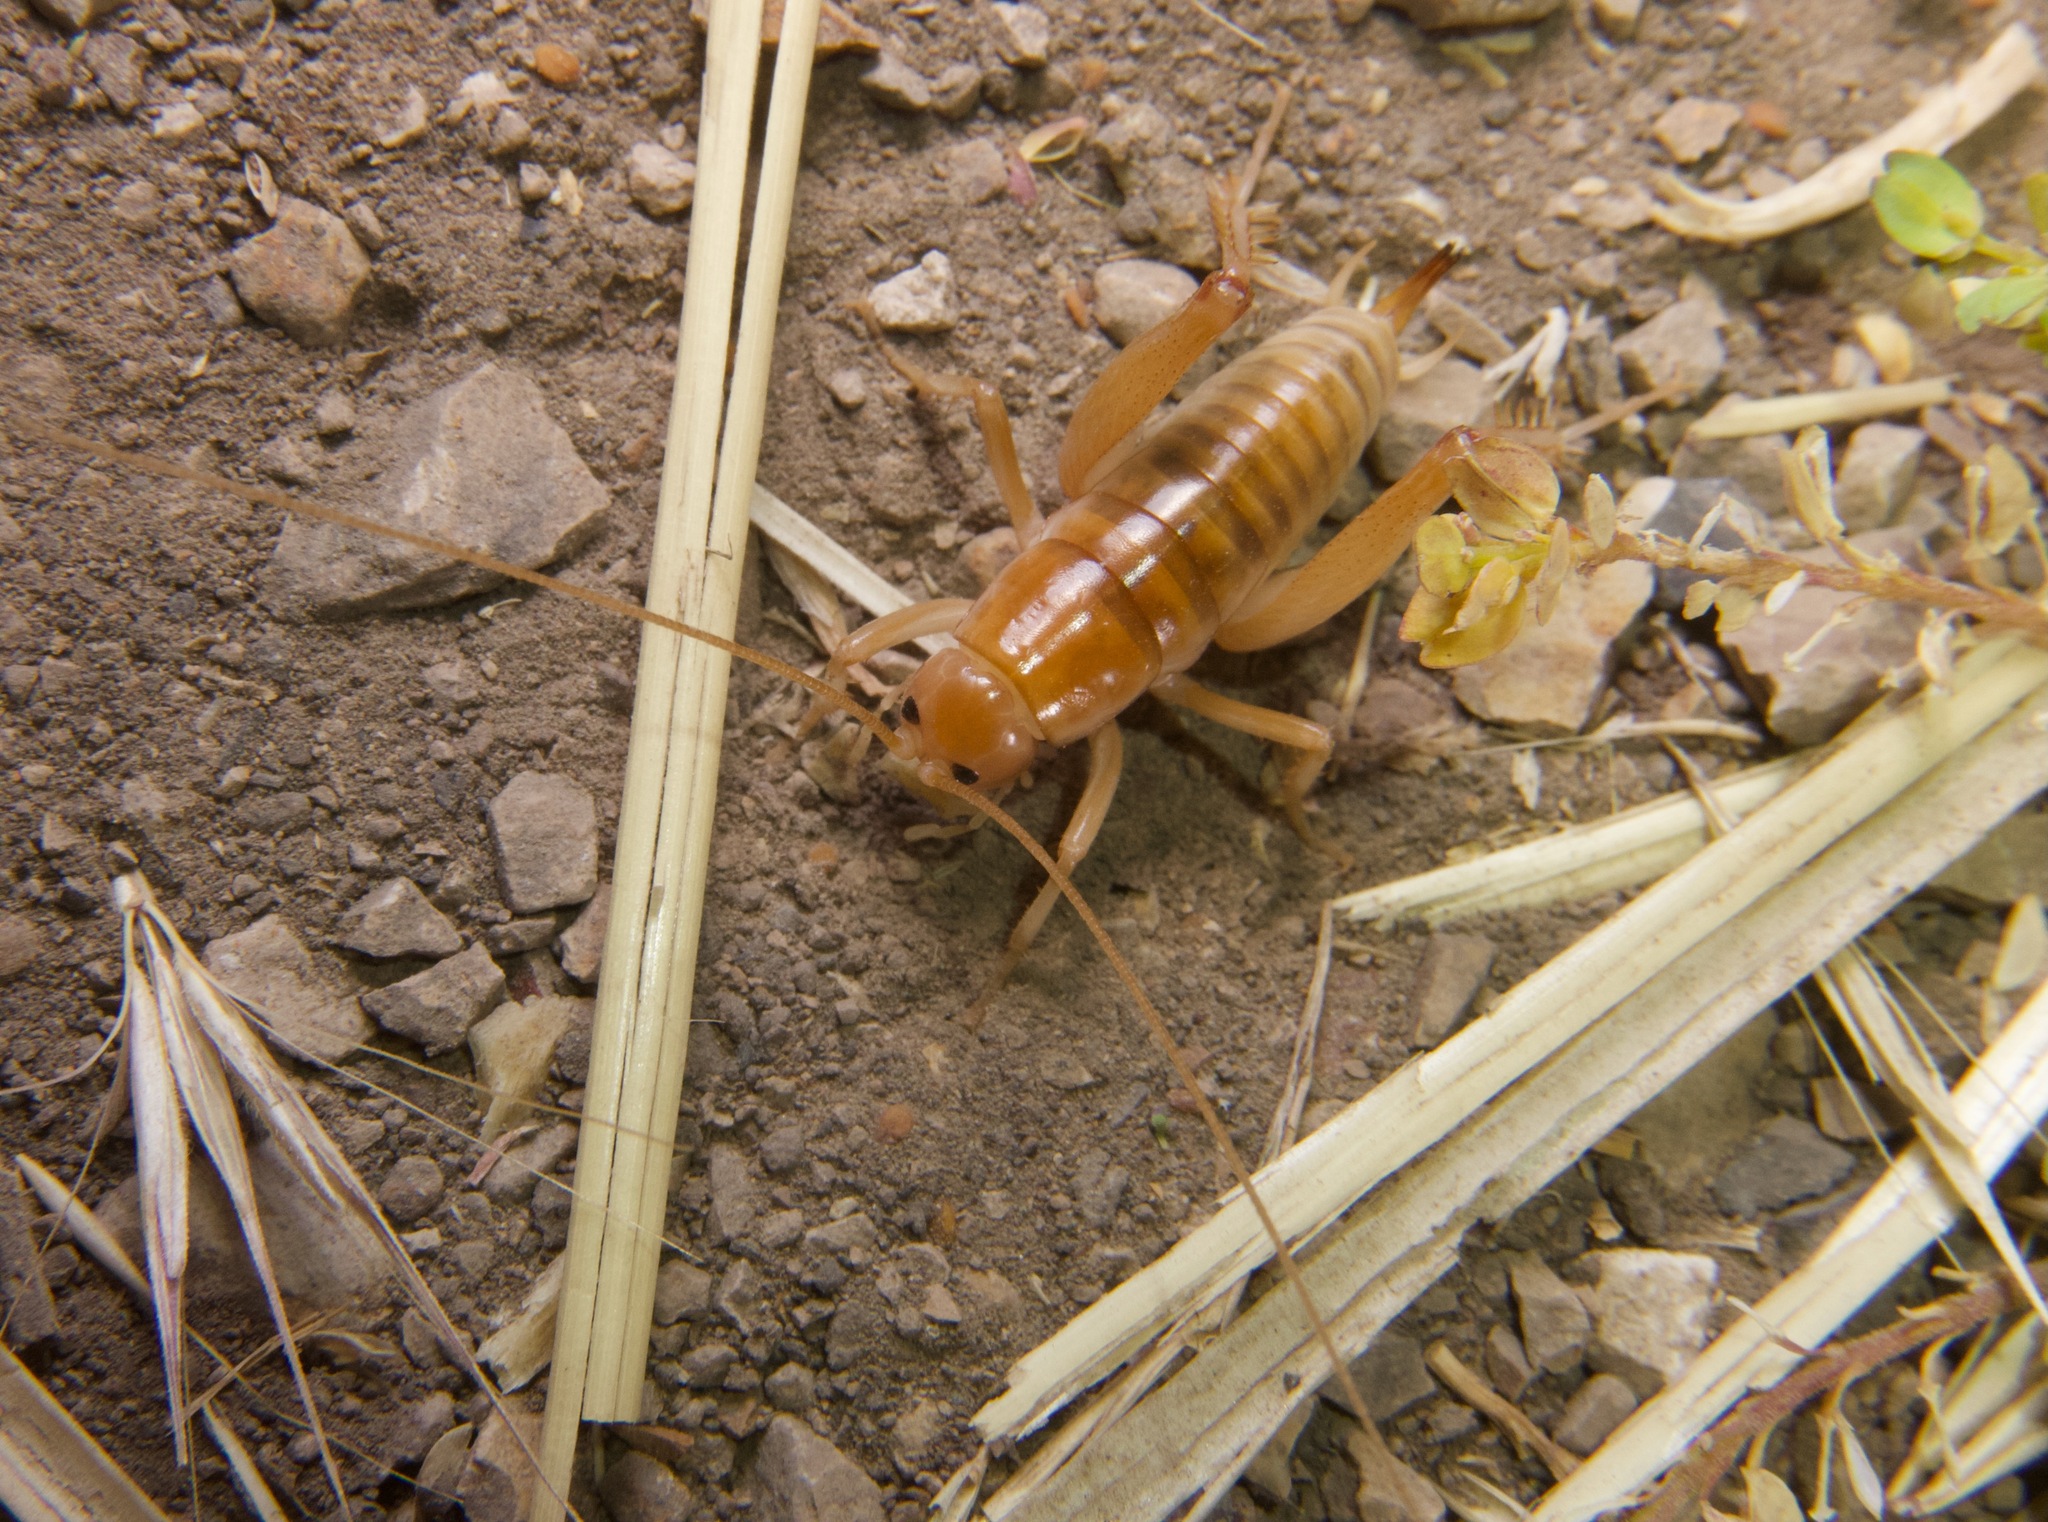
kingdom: Animalia
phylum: Arthropoda
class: Insecta
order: Orthoptera
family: Rhaphidophoridae
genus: Ceuthophilus
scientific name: Ceuthophilus californianus
